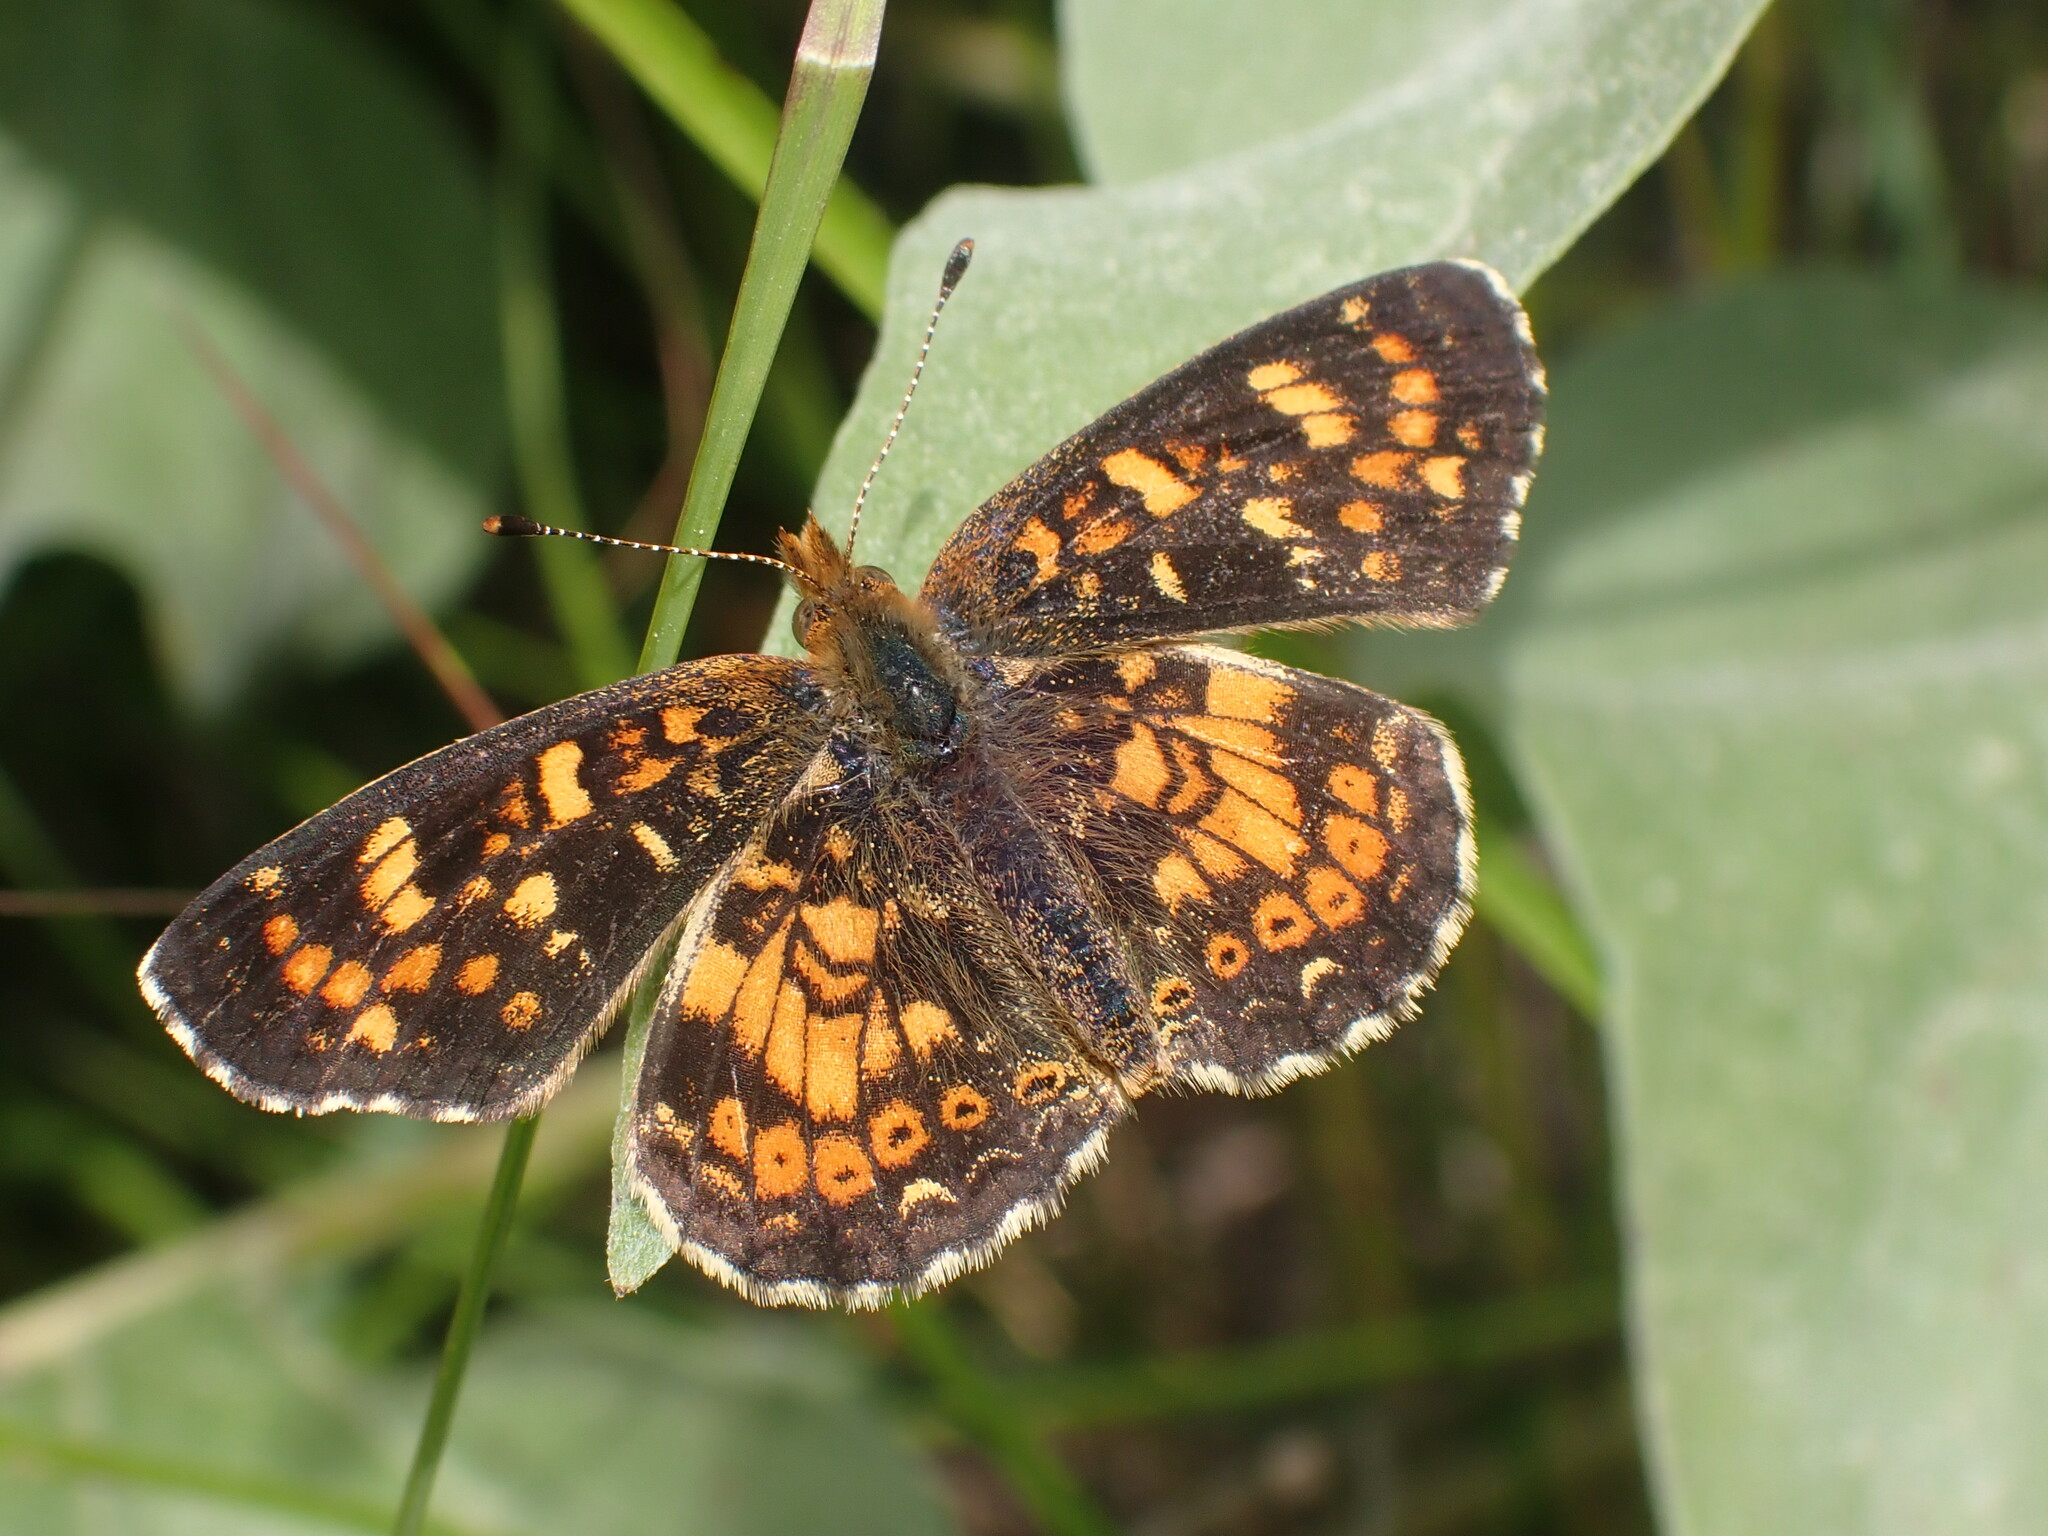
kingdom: Animalia
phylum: Arthropoda
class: Insecta
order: Lepidoptera
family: Nymphalidae
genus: Phyciodes
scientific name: Phyciodes tharos
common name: Pearl crescent
